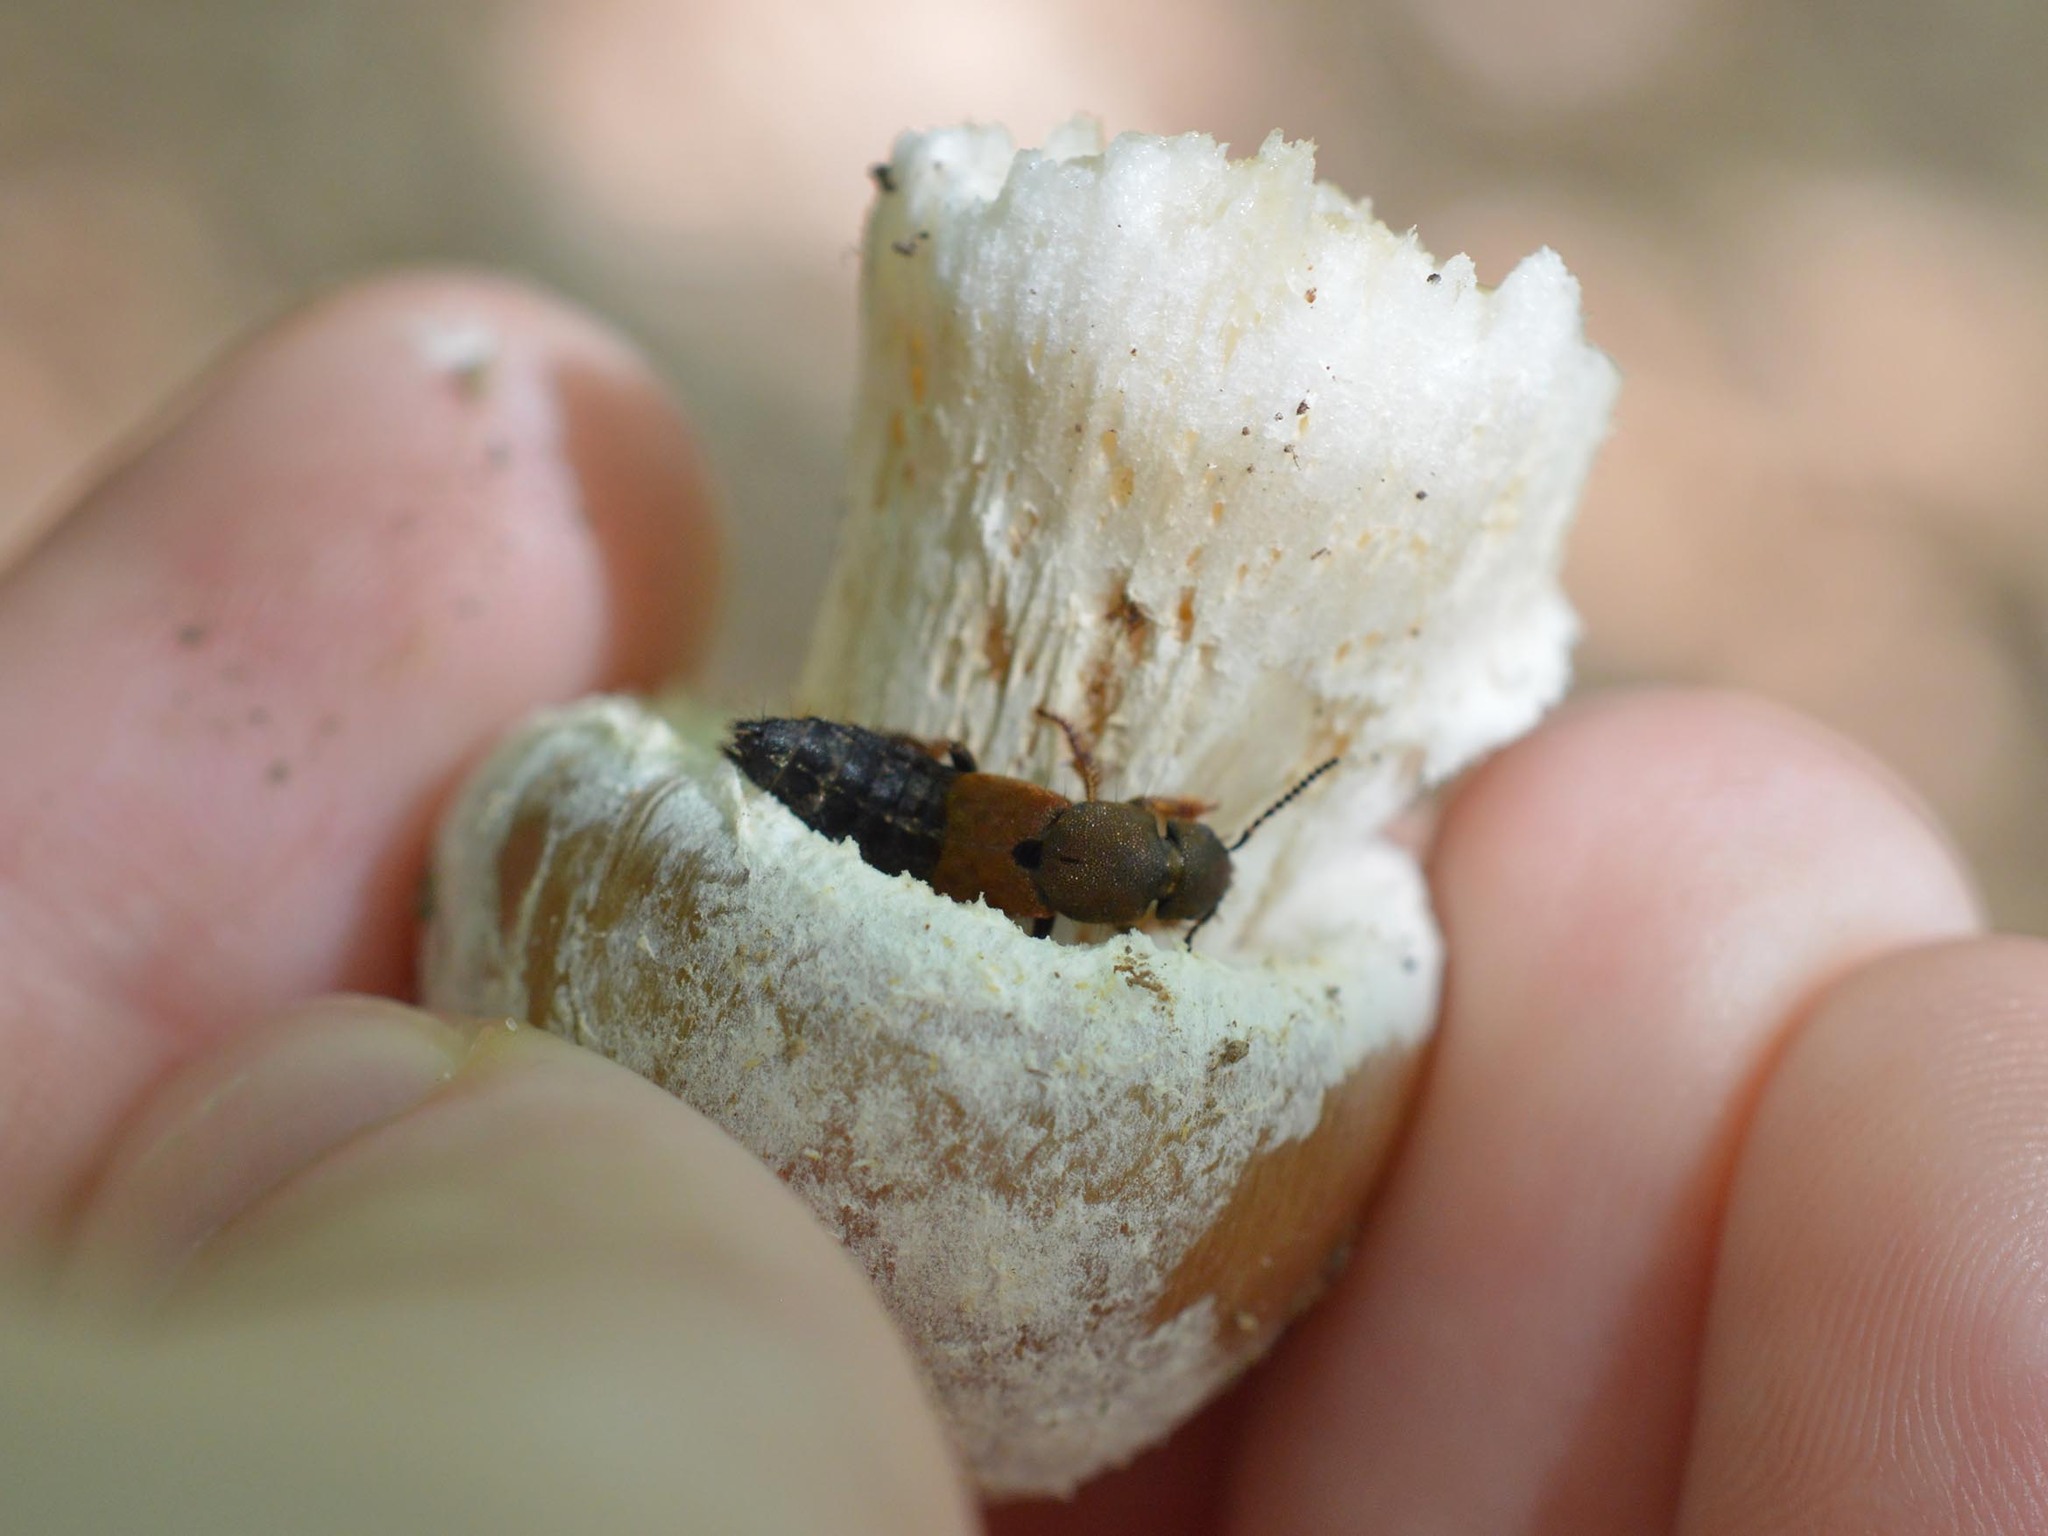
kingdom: Animalia
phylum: Arthropoda
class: Insecta
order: Coleoptera
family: Staphylinidae
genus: Platydracus
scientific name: Platydracus chalcocephalus
